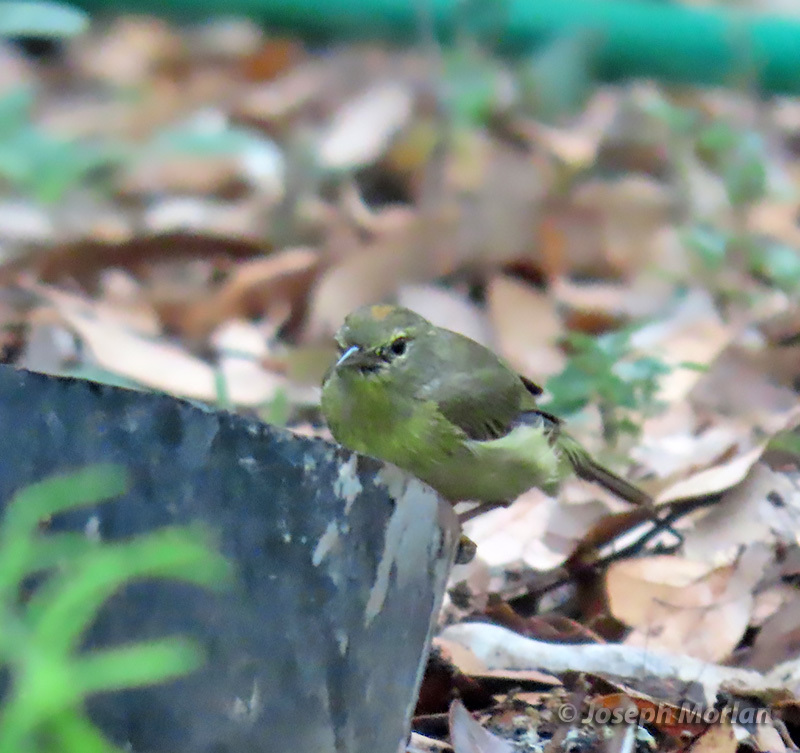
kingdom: Animalia
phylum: Chordata
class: Aves
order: Passeriformes
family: Parulidae
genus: Leiothlypis
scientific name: Leiothlypis celata
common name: Orange-crowned warbler
